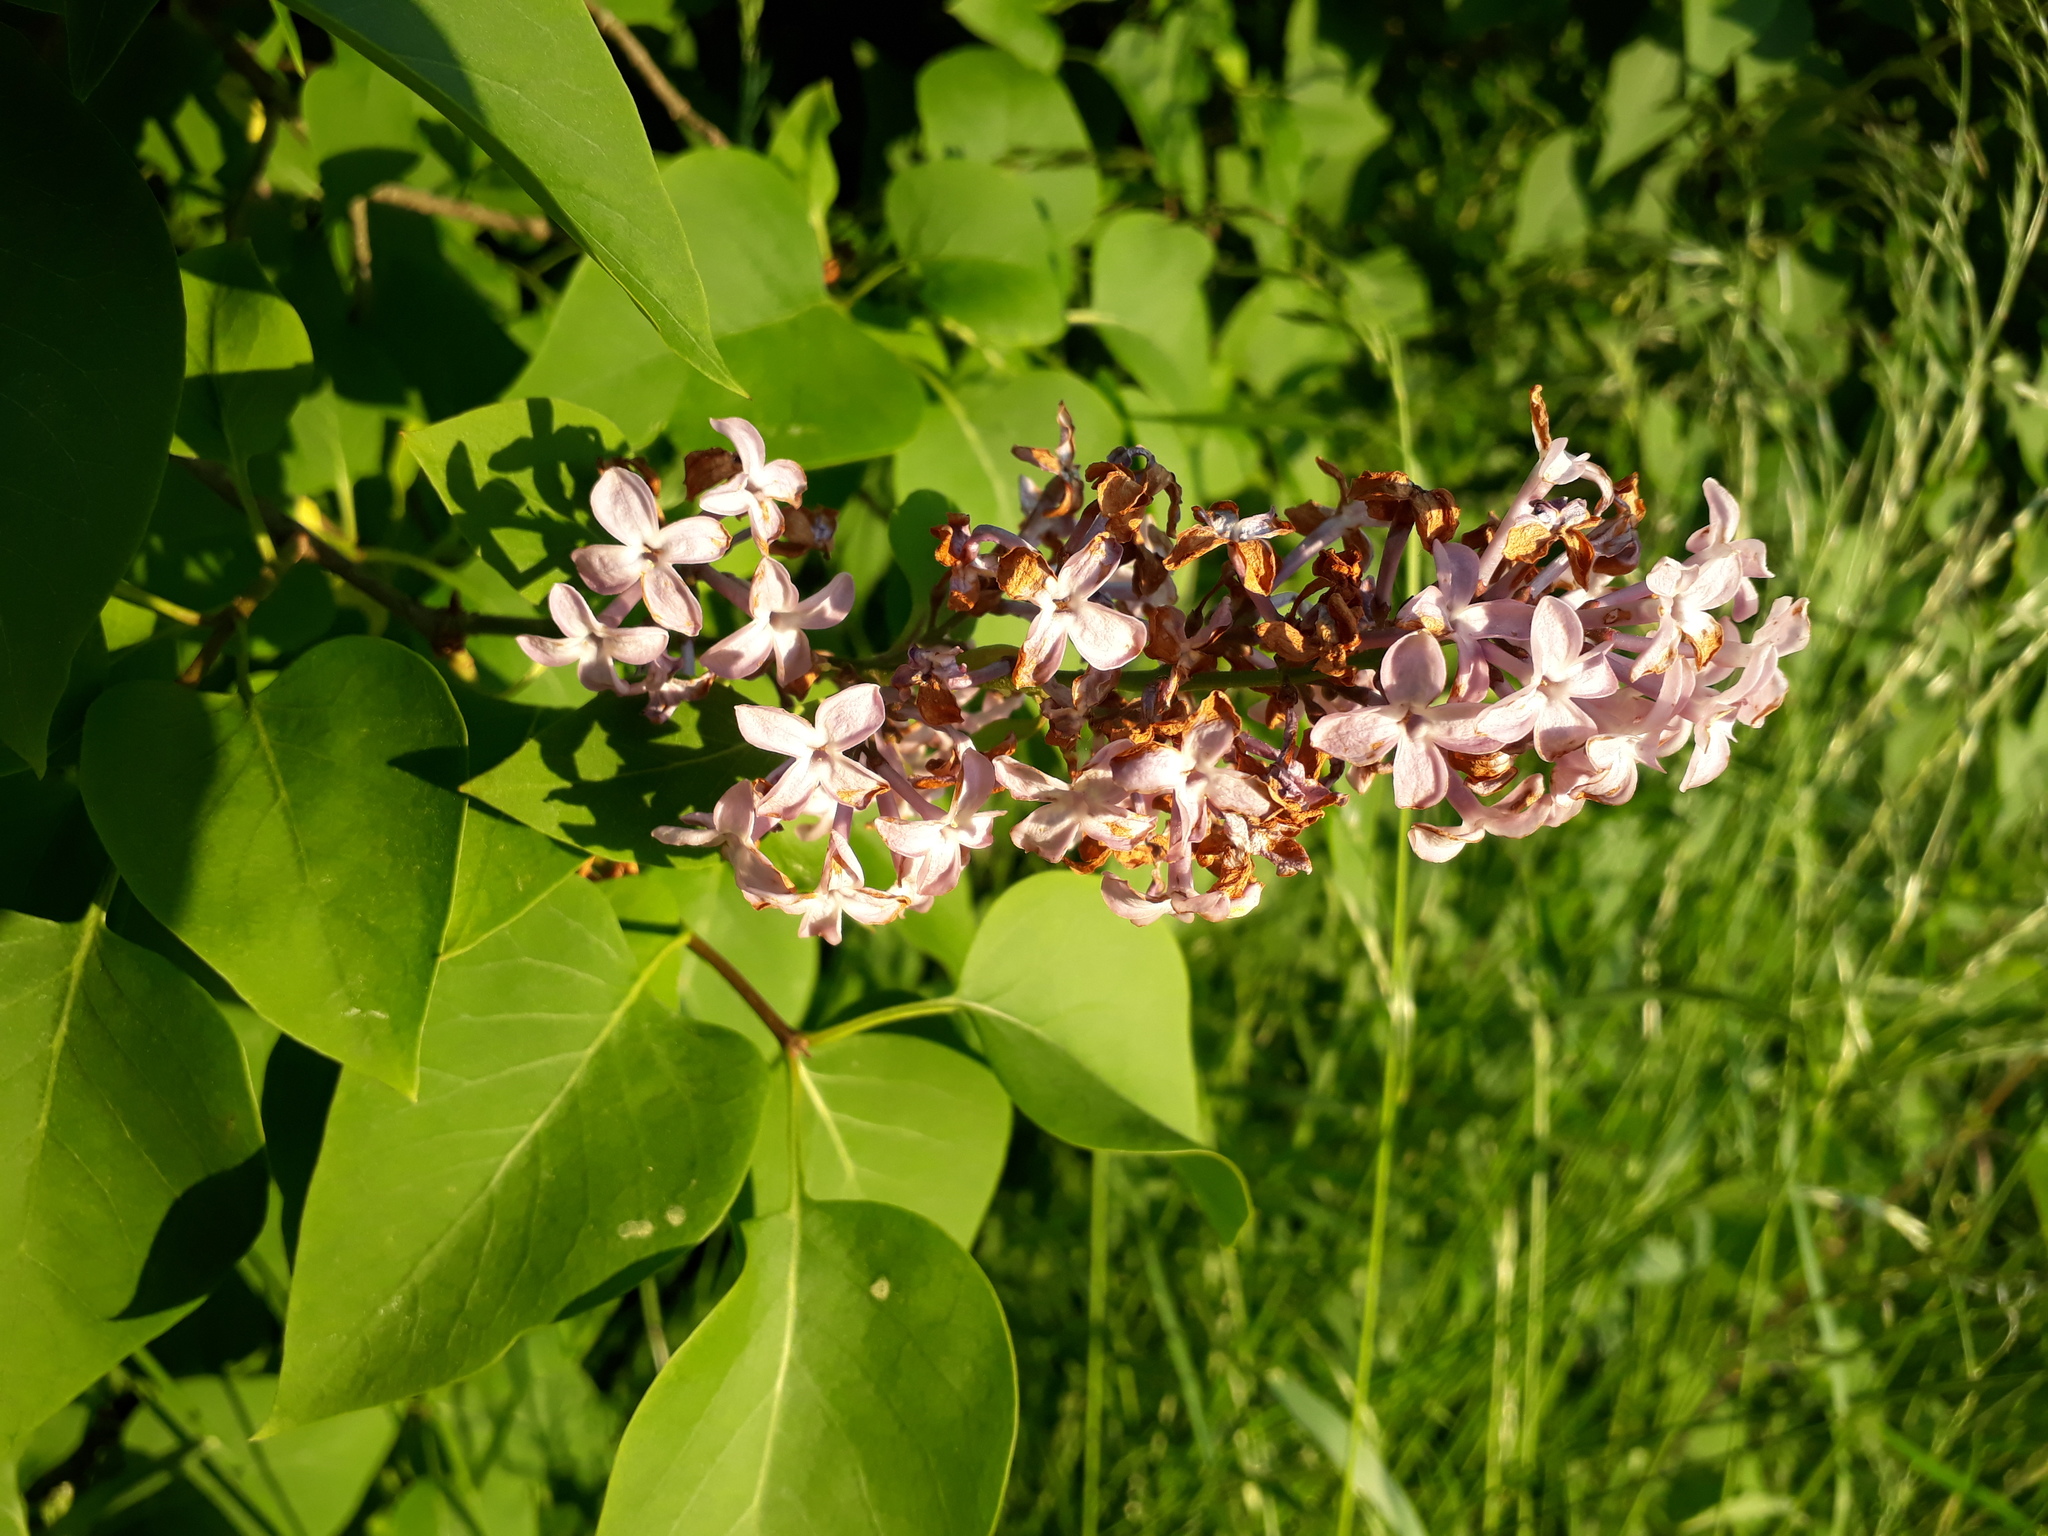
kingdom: Plantae
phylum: Tracheophyta
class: Magnoliopsida
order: Lamiales
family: Oleaceae
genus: Syringa
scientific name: Syringa vulgaris
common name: Common lilac
